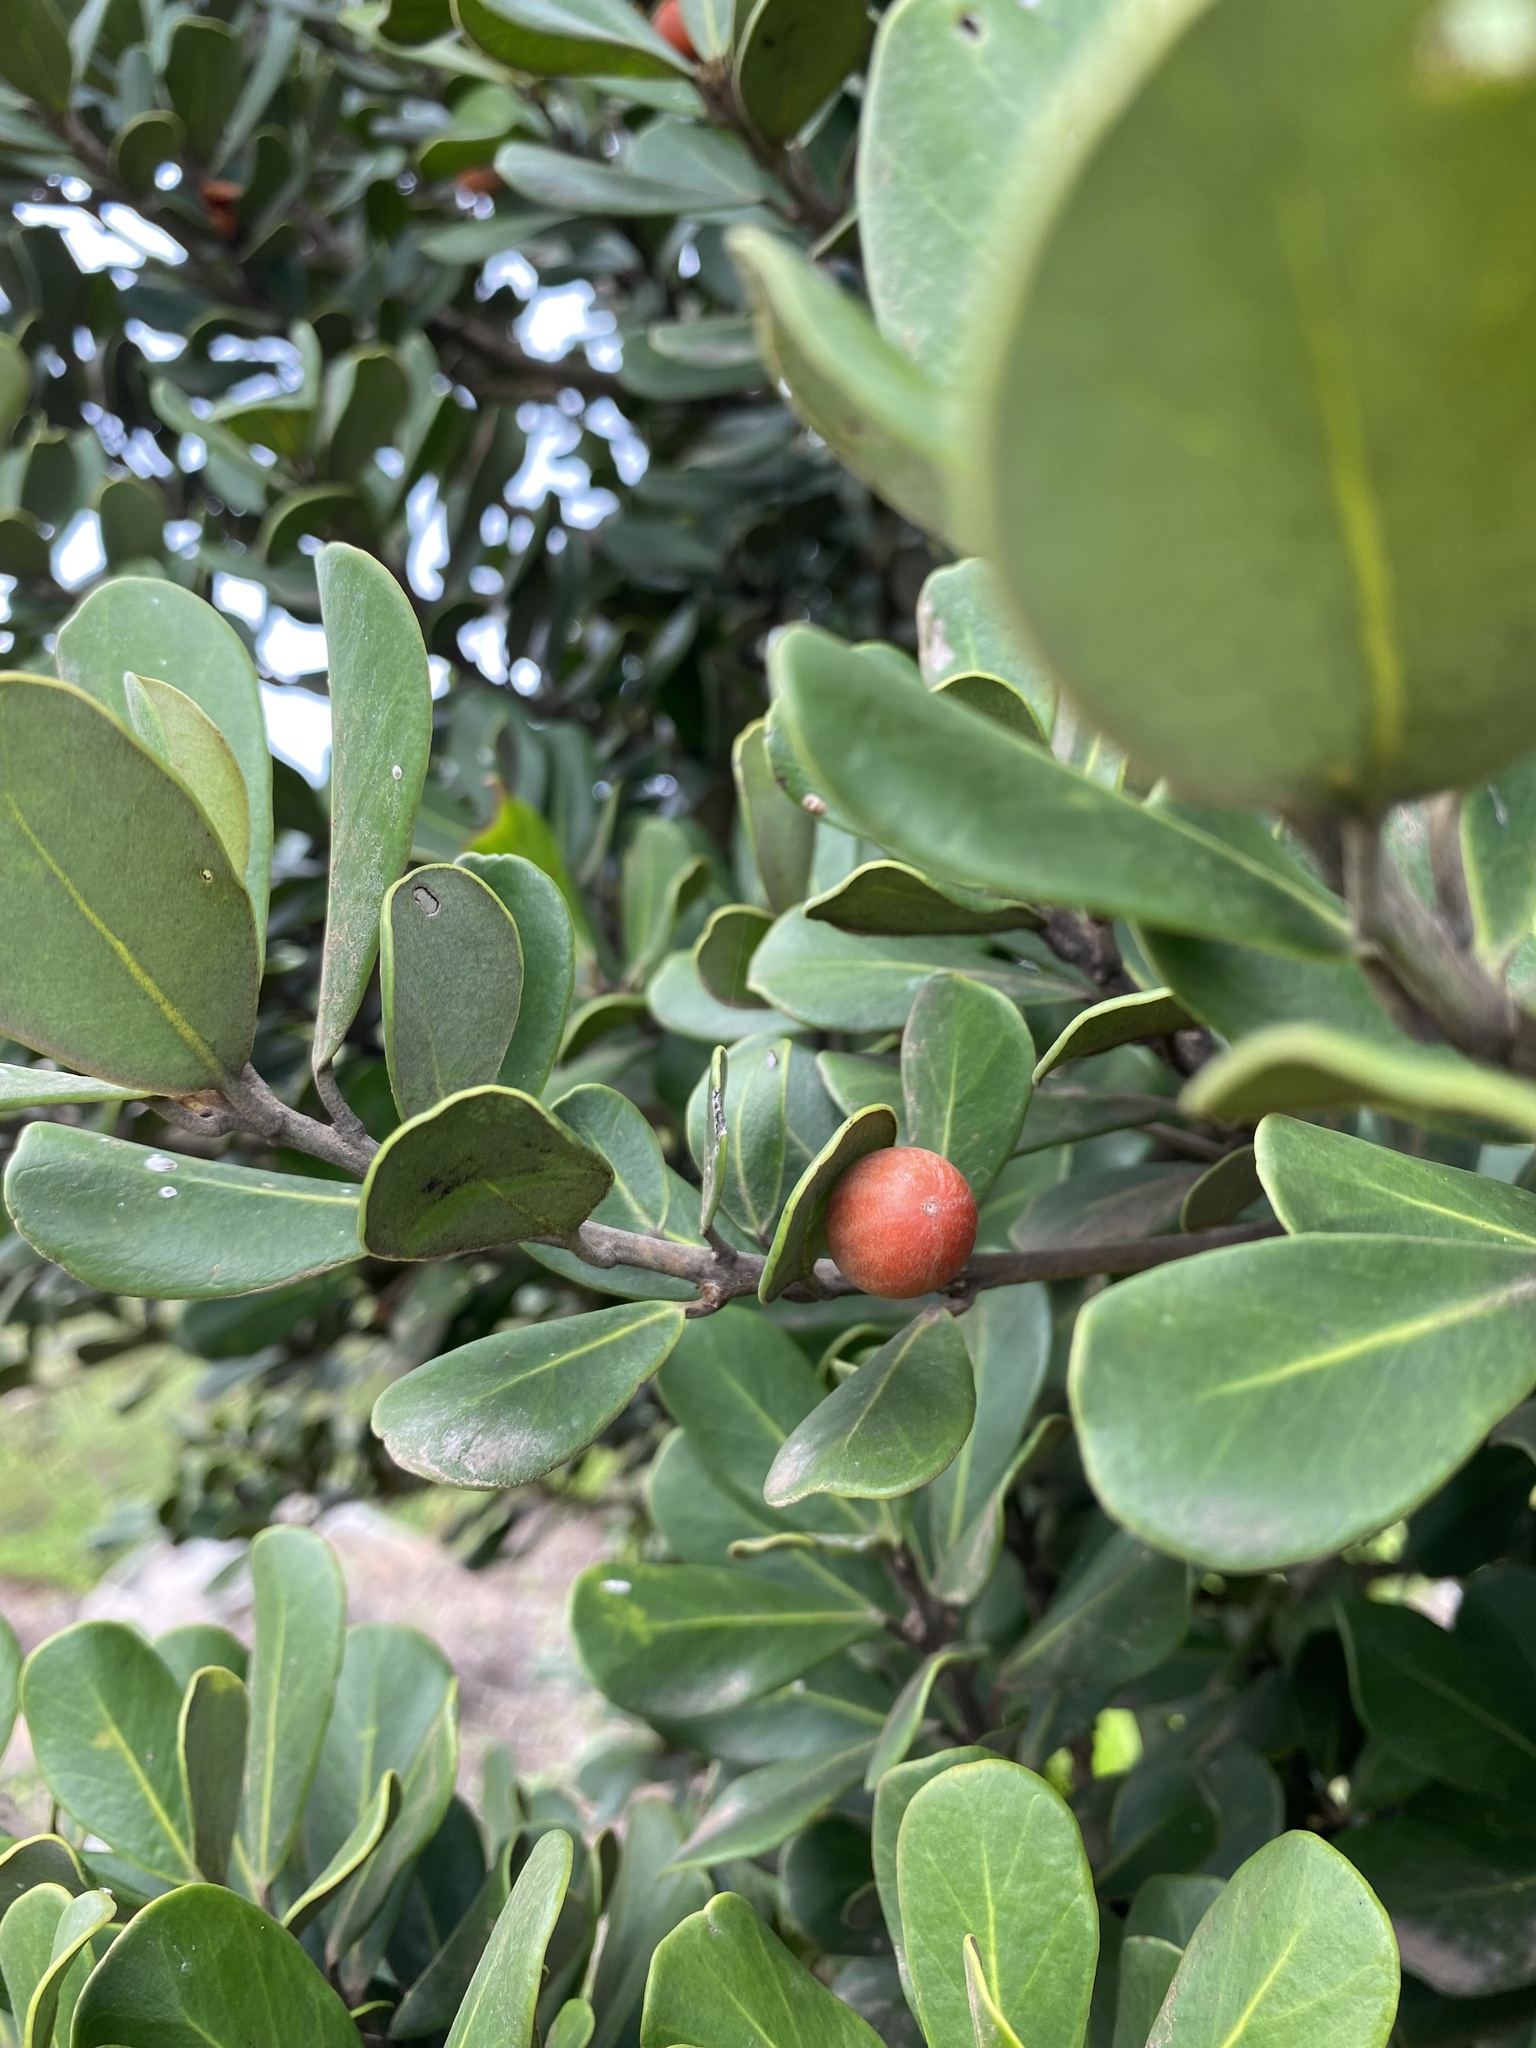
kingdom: Plantae
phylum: Tracheophyta
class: Magnoliopsida
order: Ericales
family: Sapotaceae
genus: Mimusops
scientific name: Mimusops caffra
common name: Coastal red milkwood
